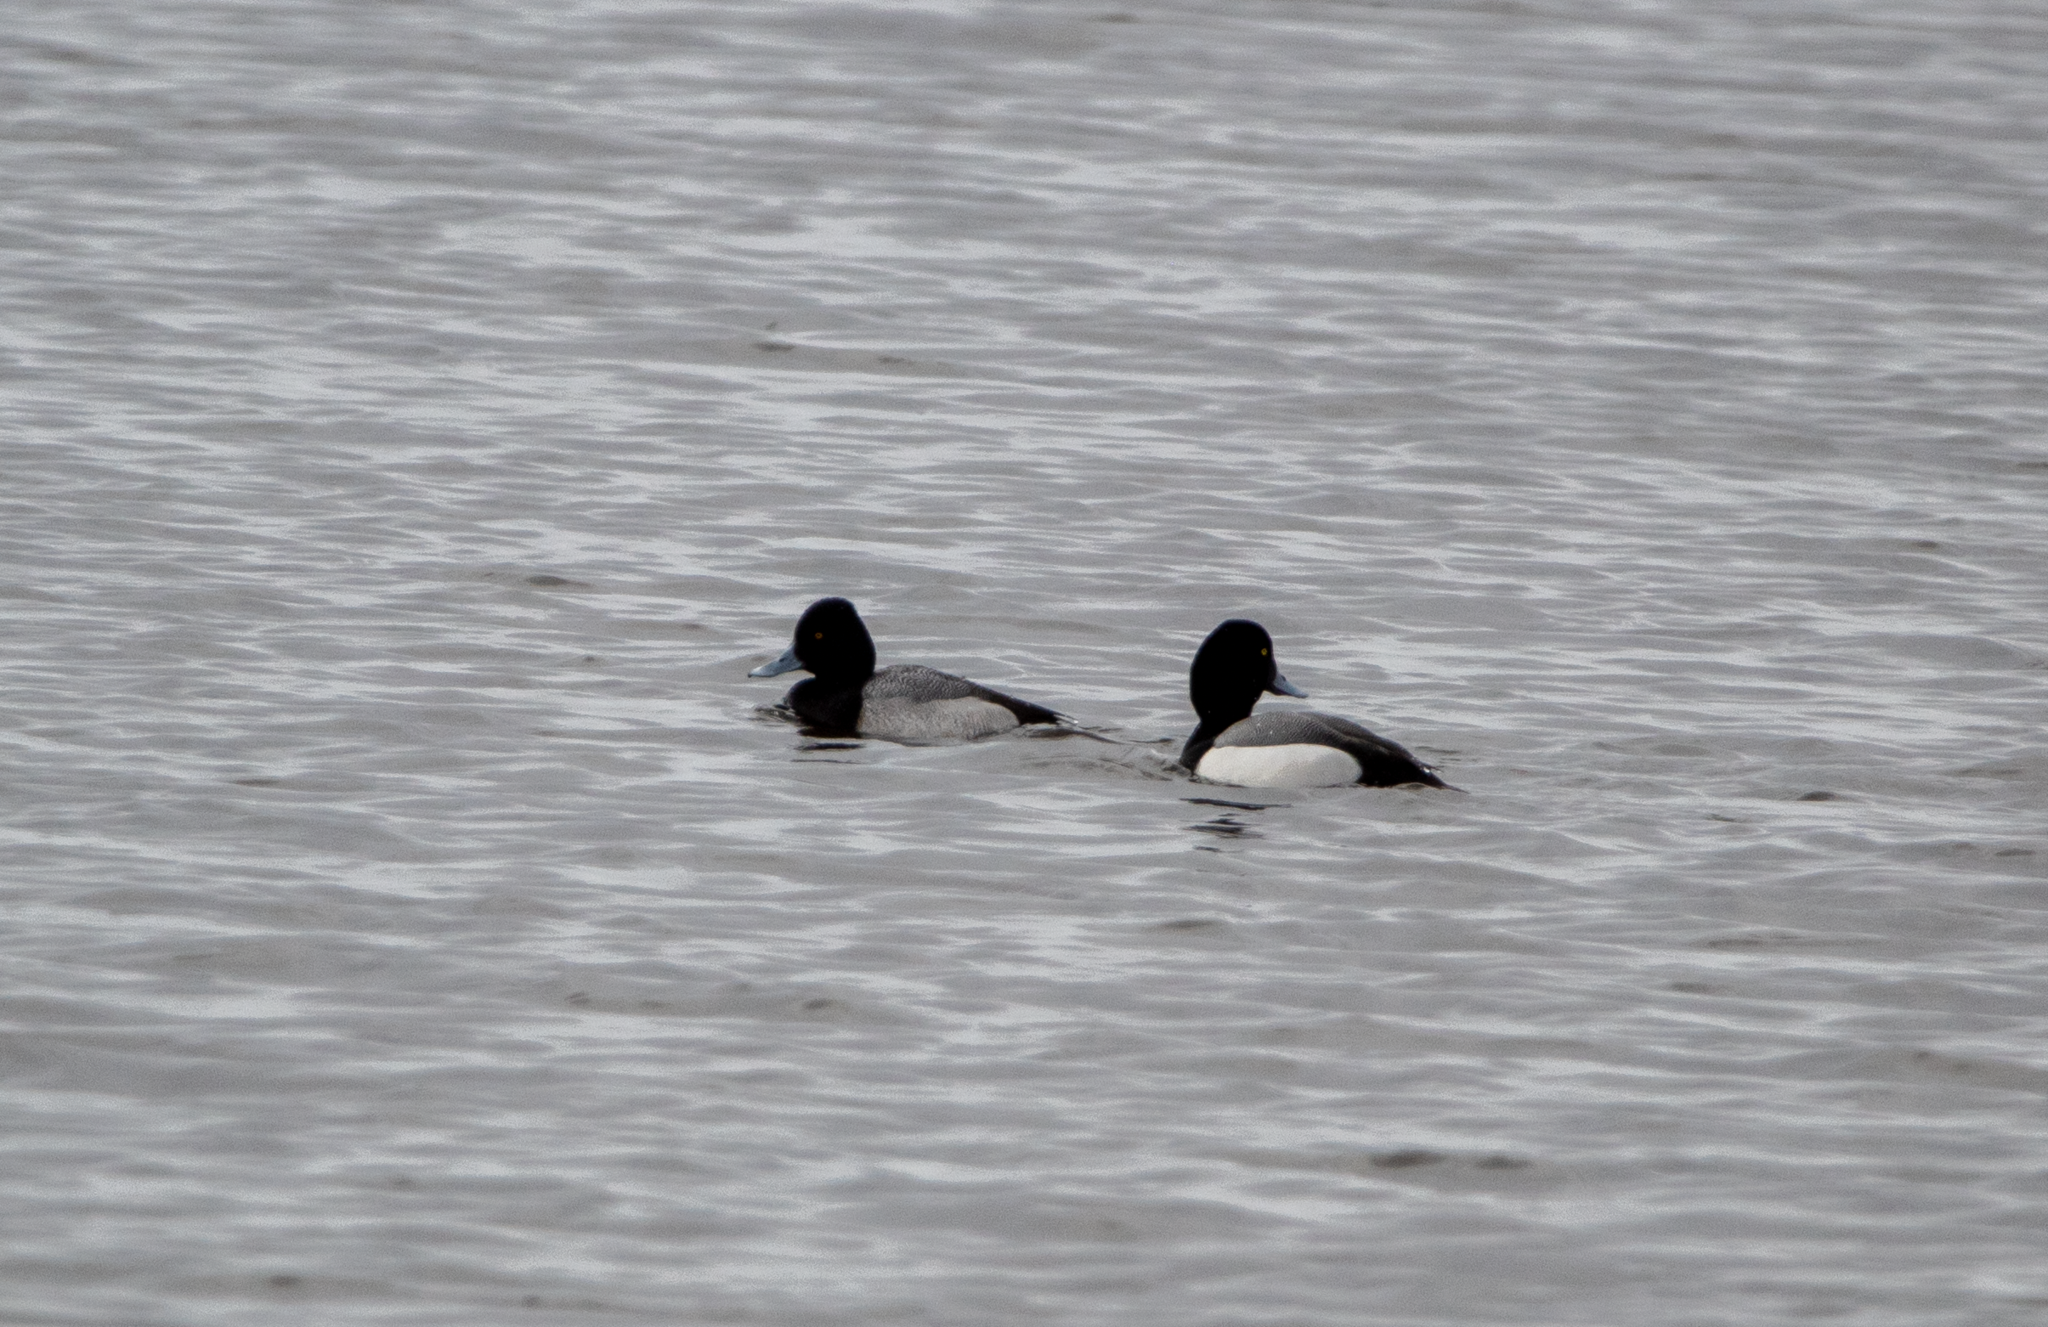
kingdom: Animalia
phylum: Chordata
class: Aves
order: Anseriformes
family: Anatidae
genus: Aythya
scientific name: Aythya affinis
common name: Lesser scaup
